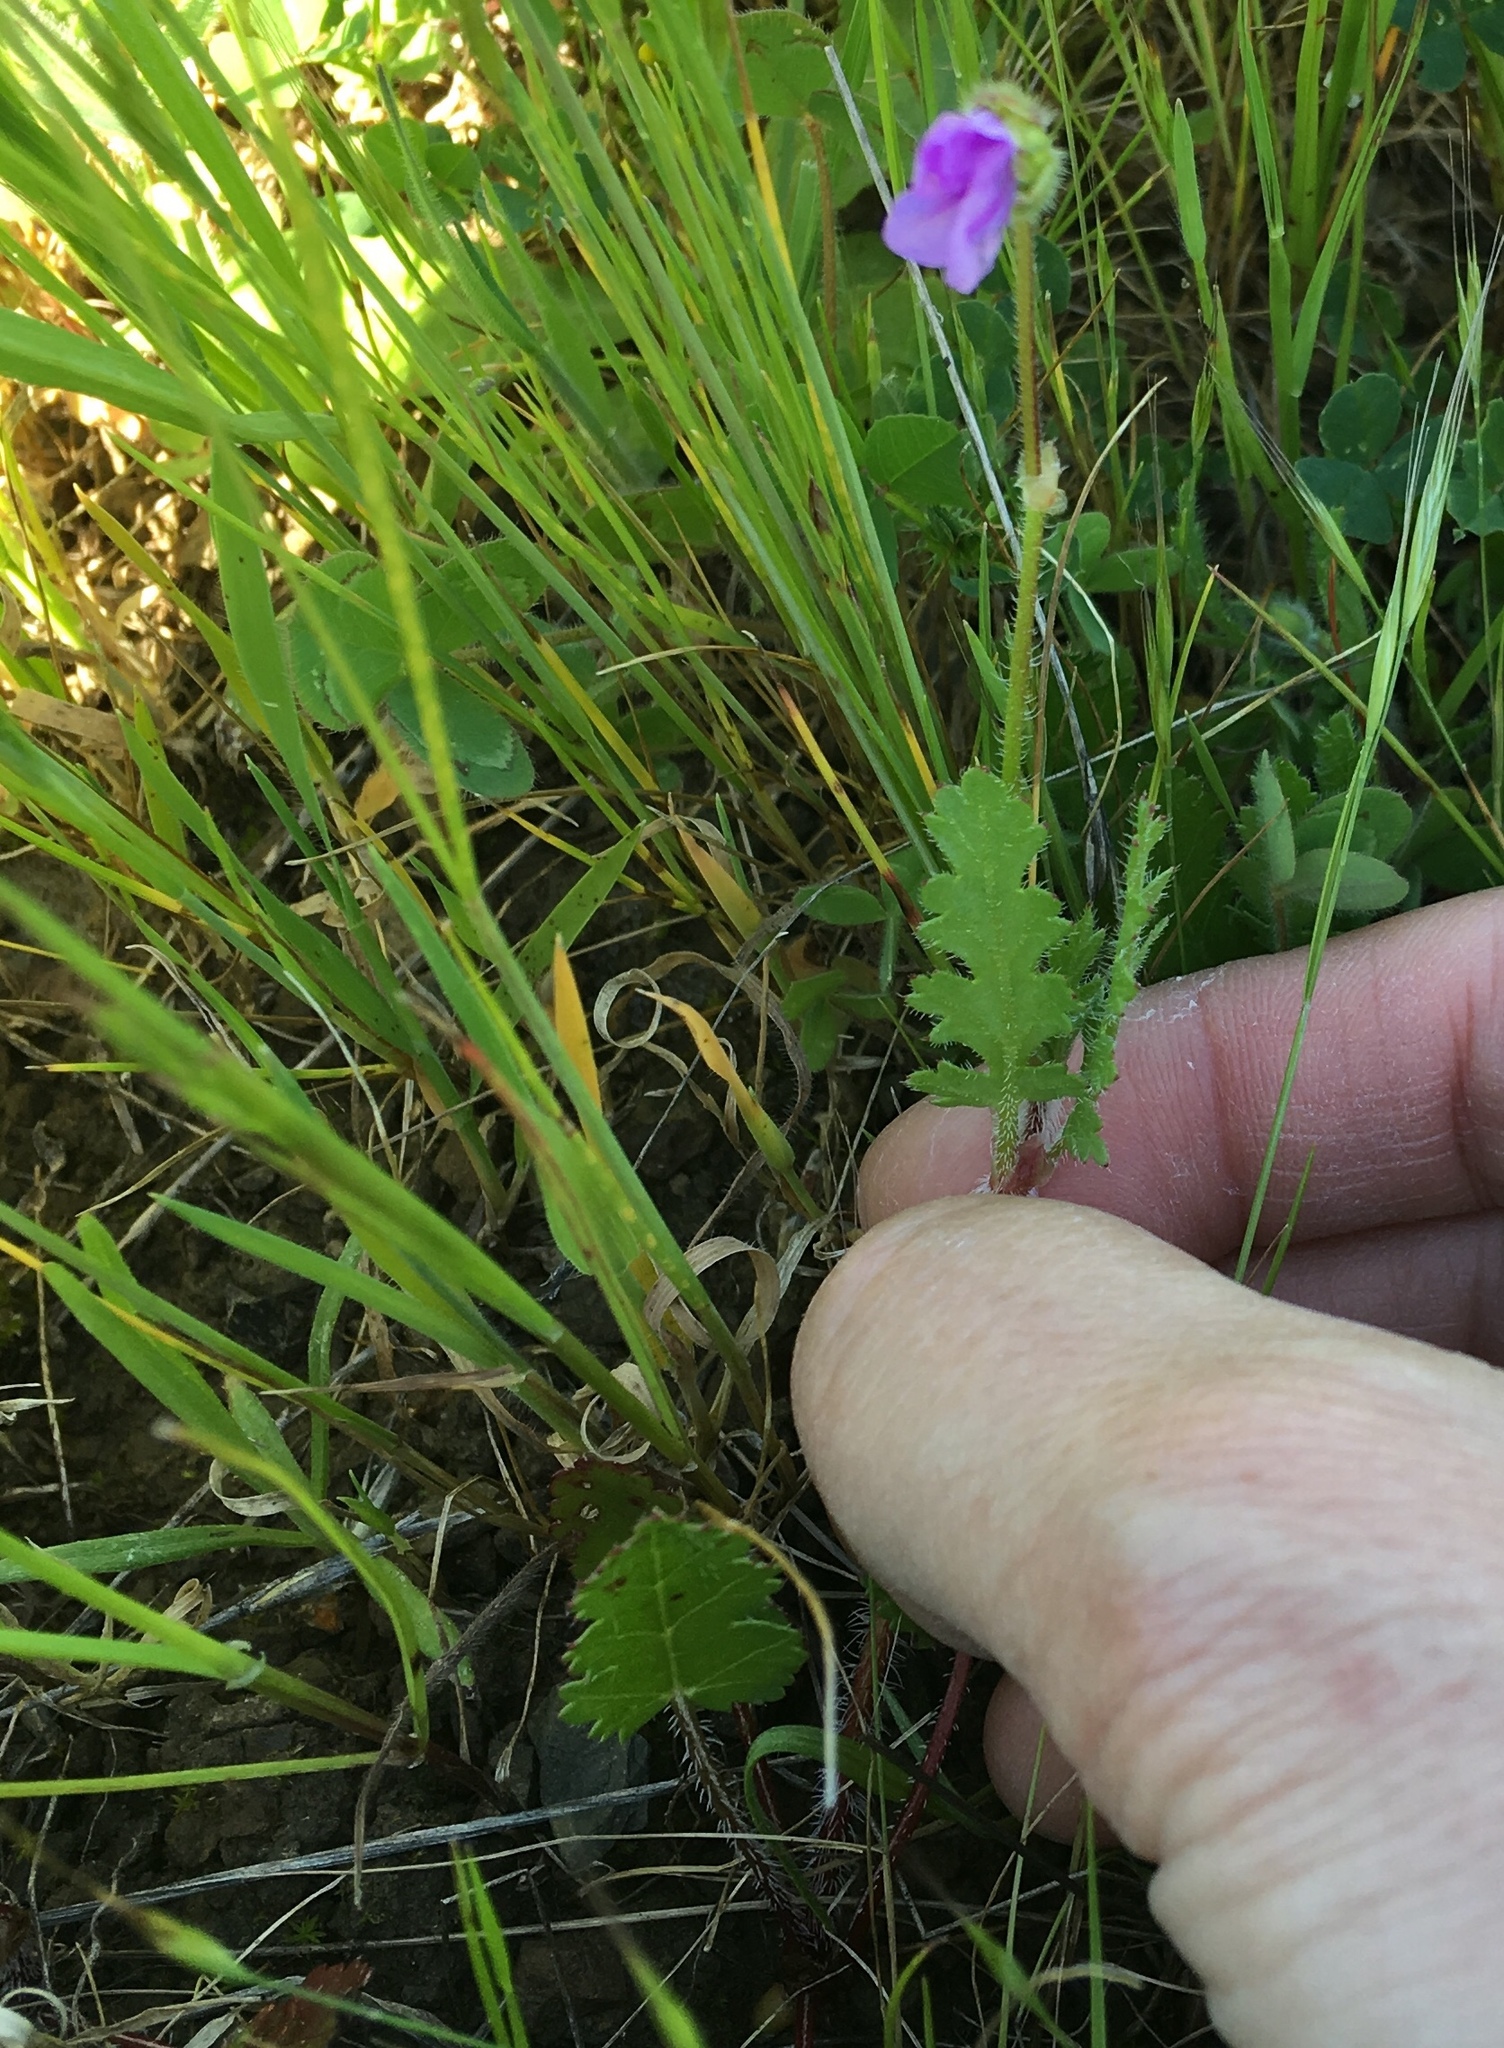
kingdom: Plantae
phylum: Tracheophyta
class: Magnoliopsida
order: Geraniales
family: Geraniaceae
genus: Erodium
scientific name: Erodium botrys
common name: Mediterranean stork's-bill
